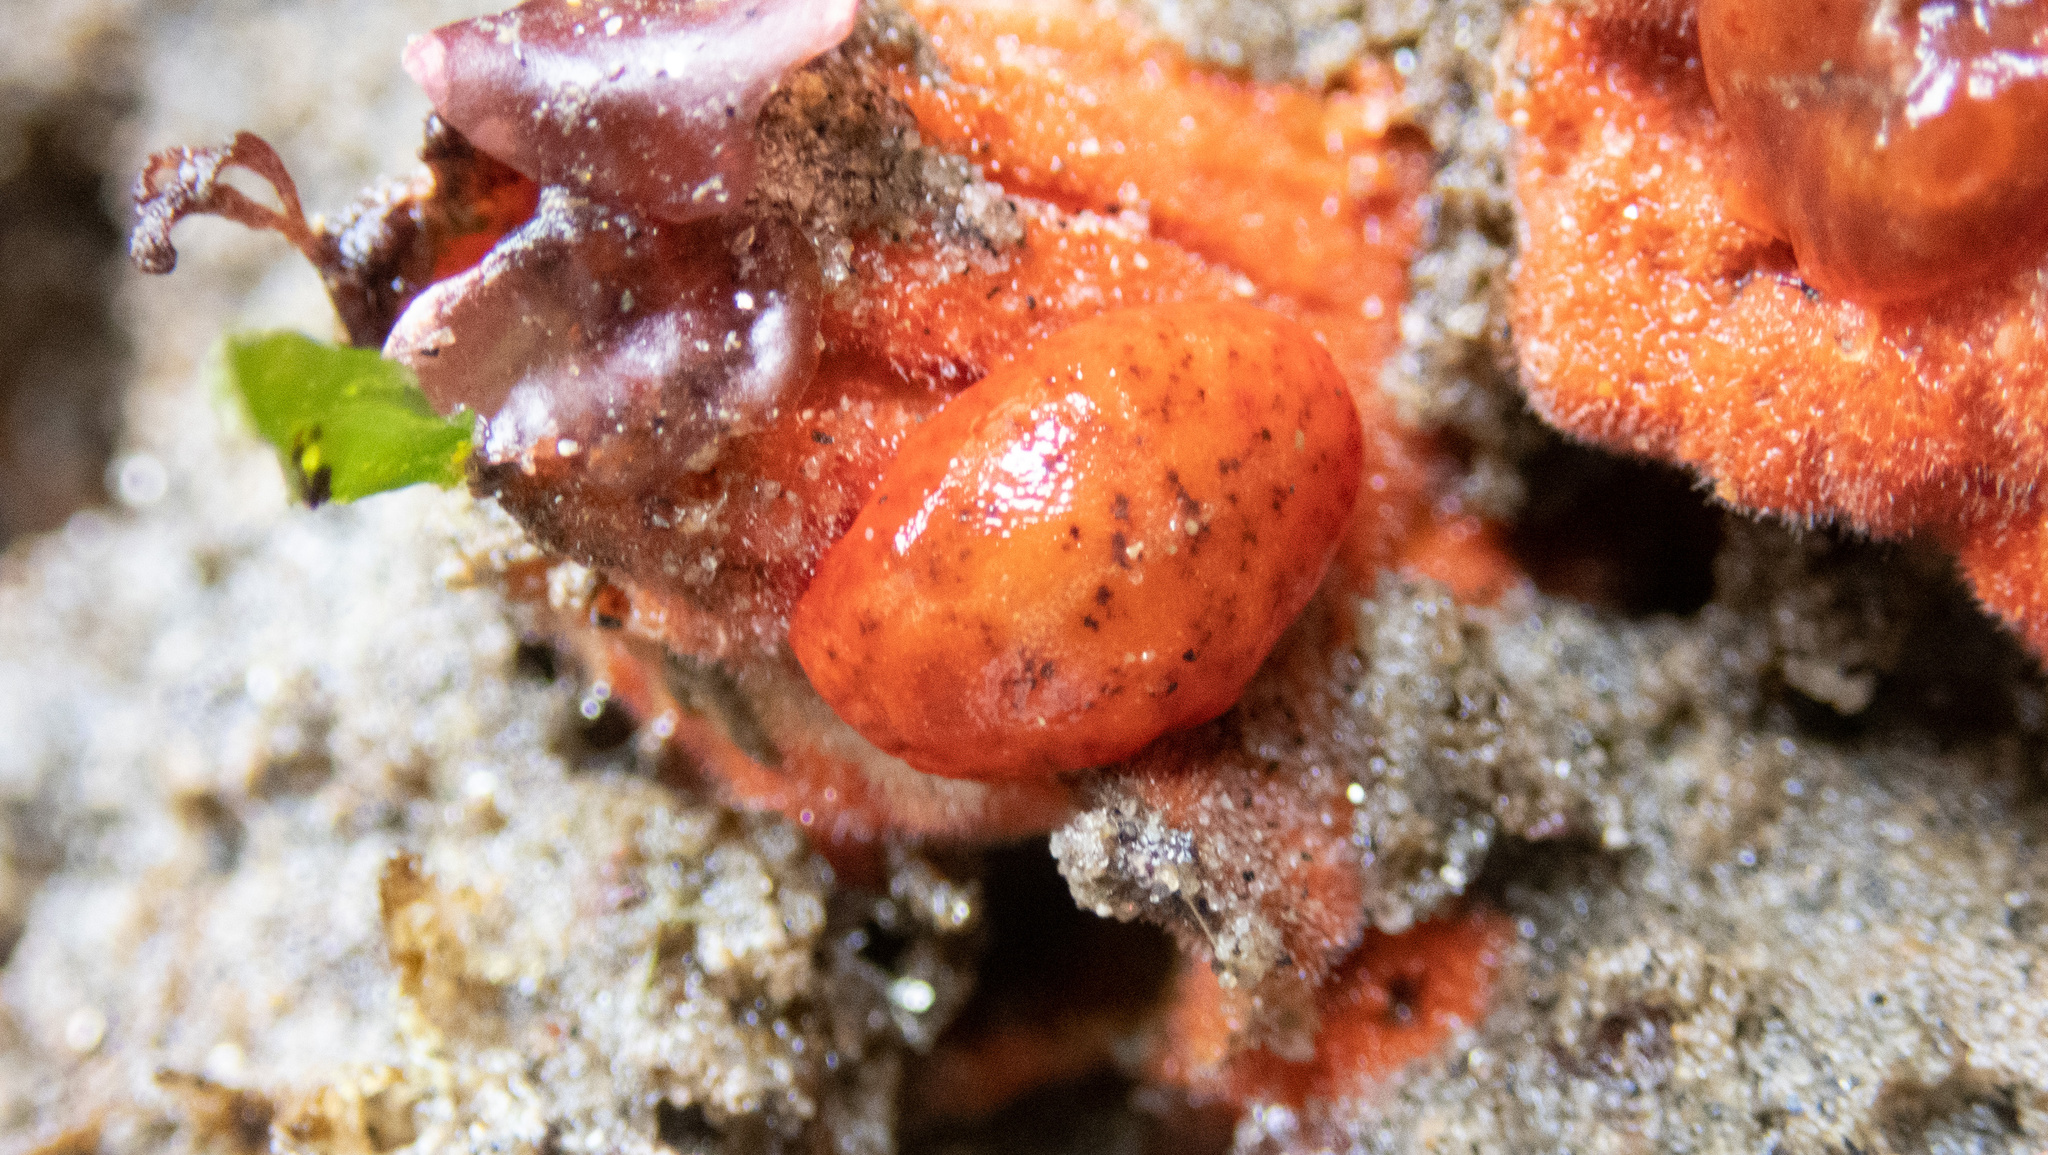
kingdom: Animalia
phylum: Mollusca
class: Gastropoda
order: Nudibranchia
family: Discodorididae
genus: Rostanga
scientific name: Rostanga pulchra
